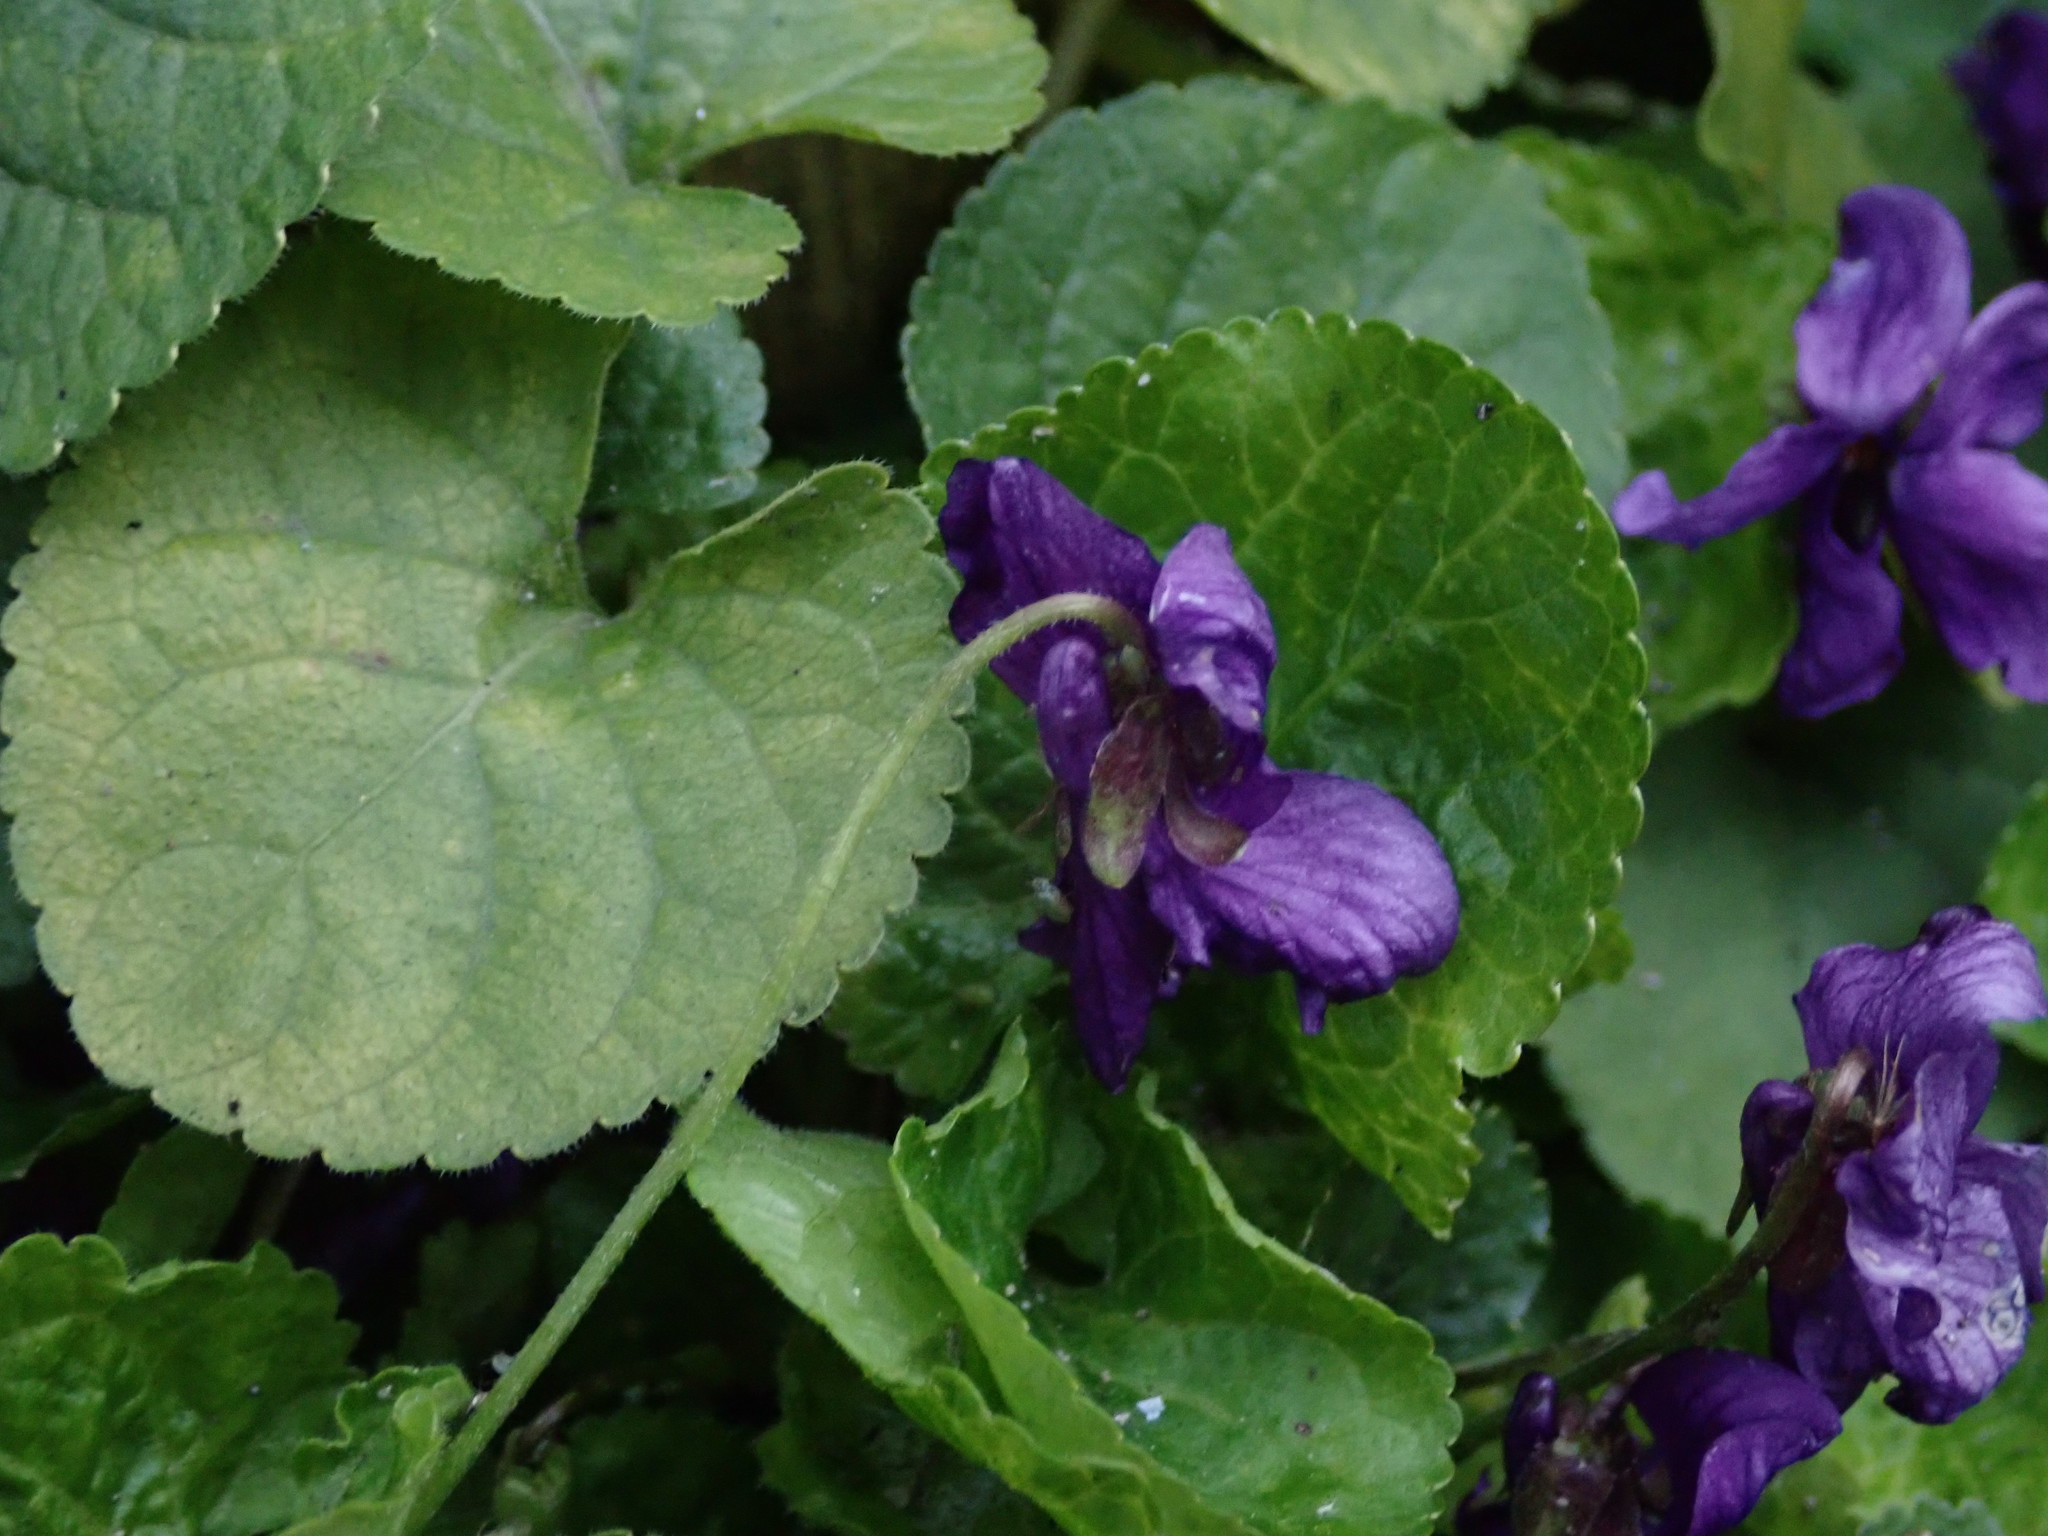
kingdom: Plantae
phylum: Tracheophyta
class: Magnoliopsida
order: Malpighiales
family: Violaceae
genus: Viola
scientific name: Viola odorata
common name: Sweet violet
